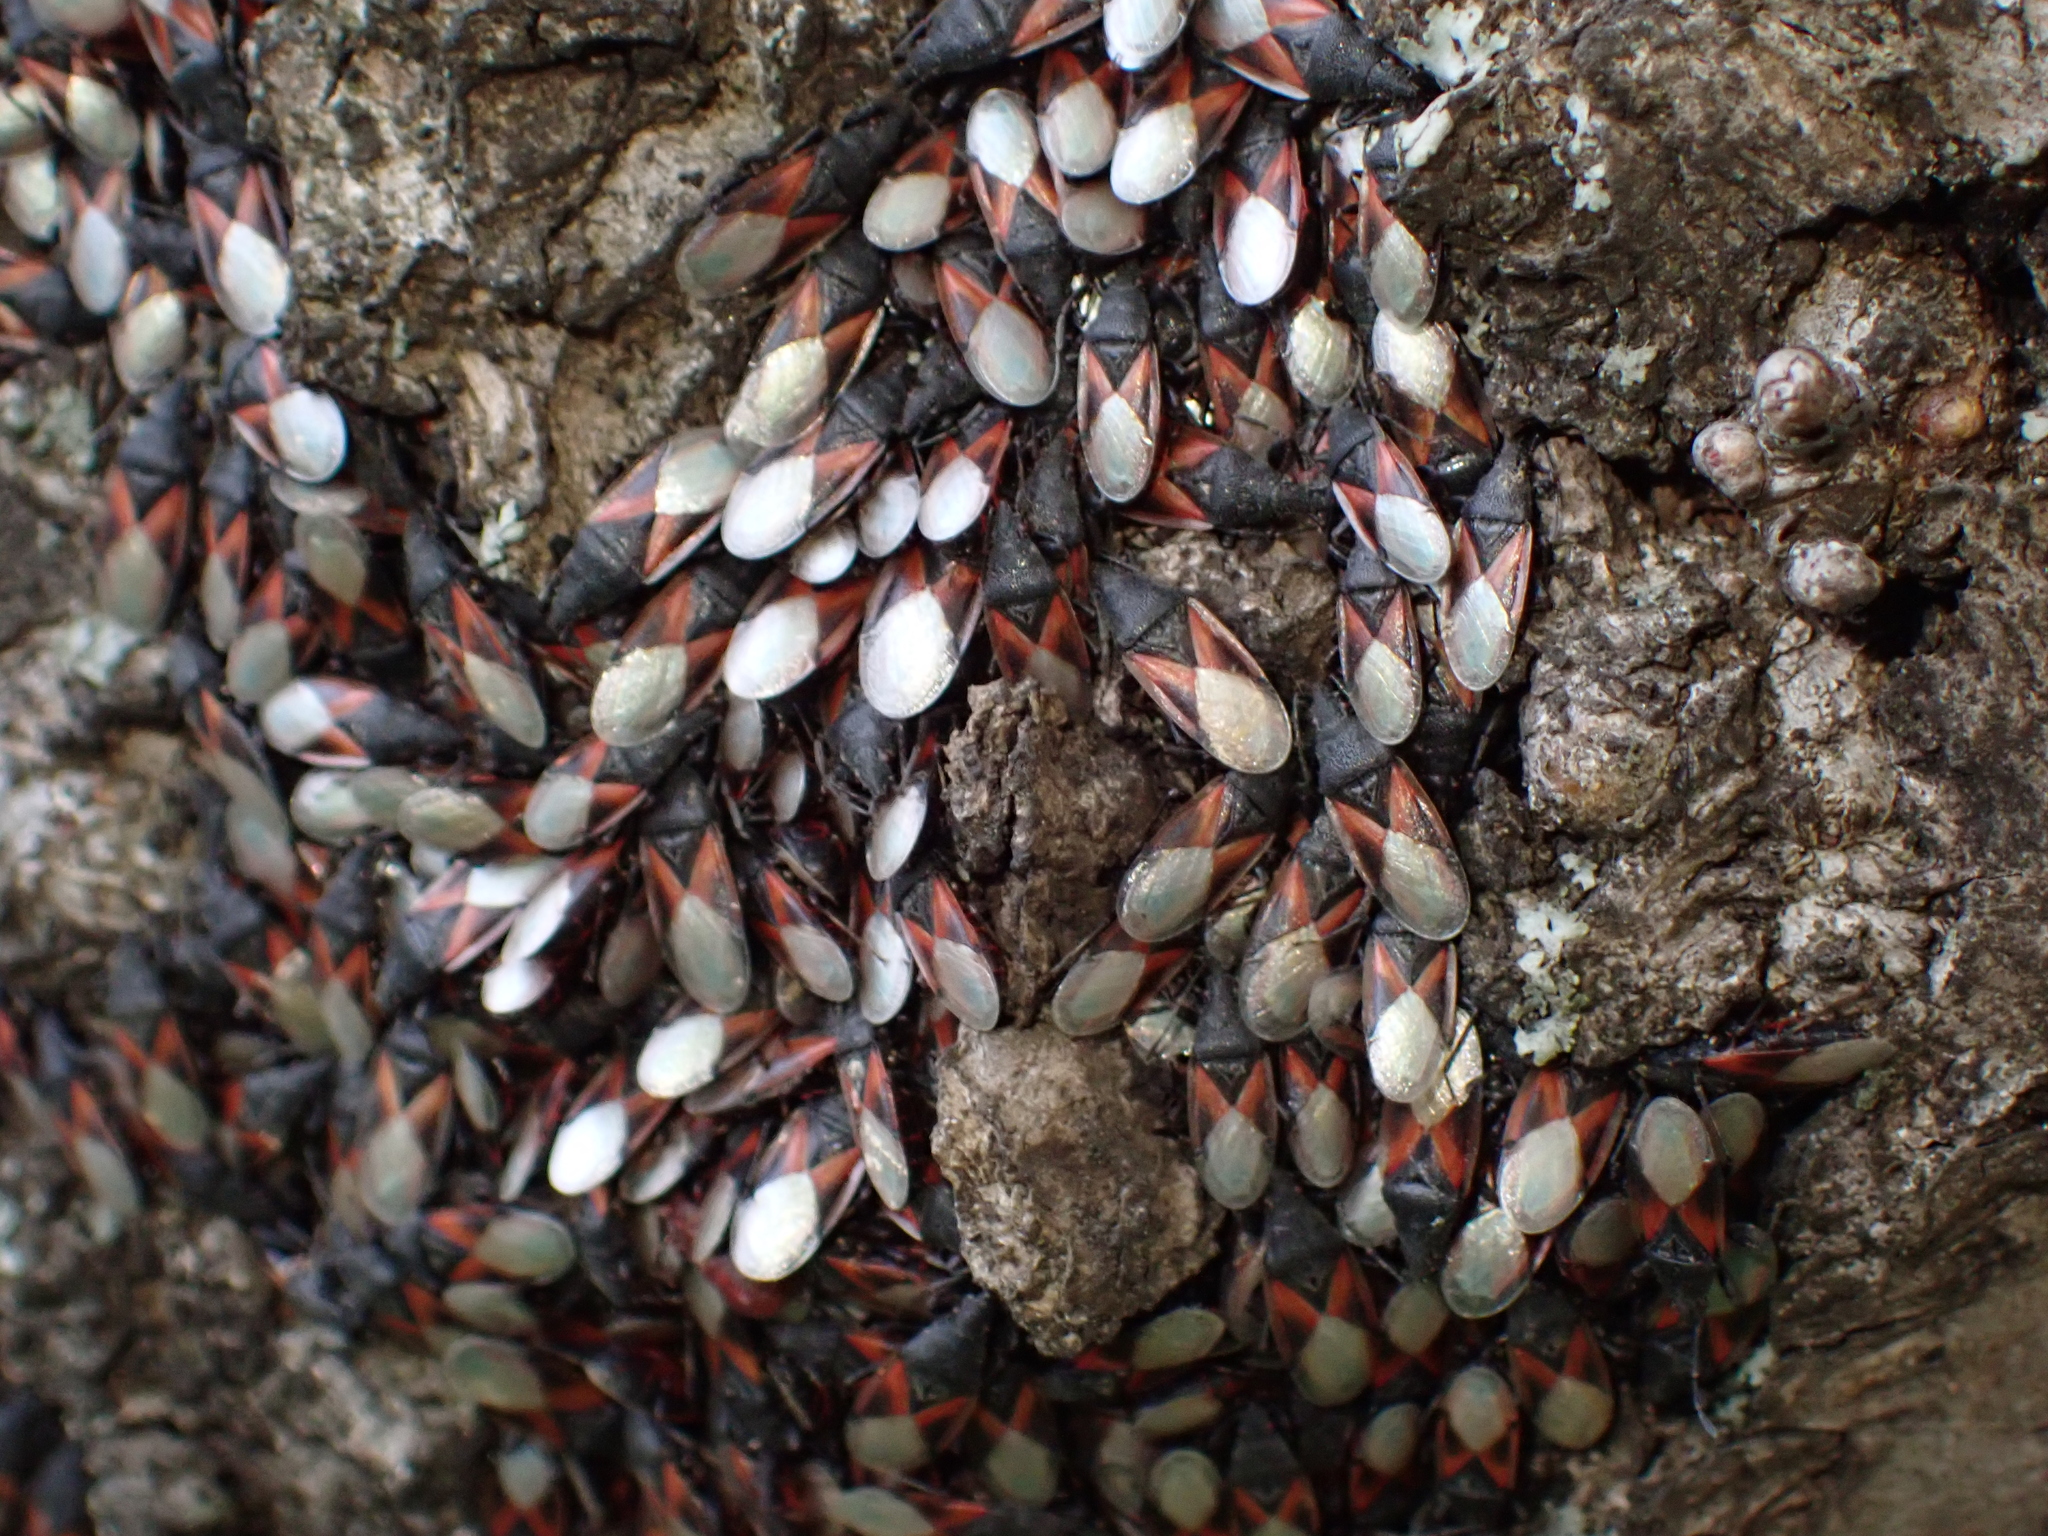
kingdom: Animalia
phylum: Arthropoda
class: Insecta
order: Hemiptera
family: Oxycarenidae
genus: Oxycarenus
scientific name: Oxycarenus lavaterae
